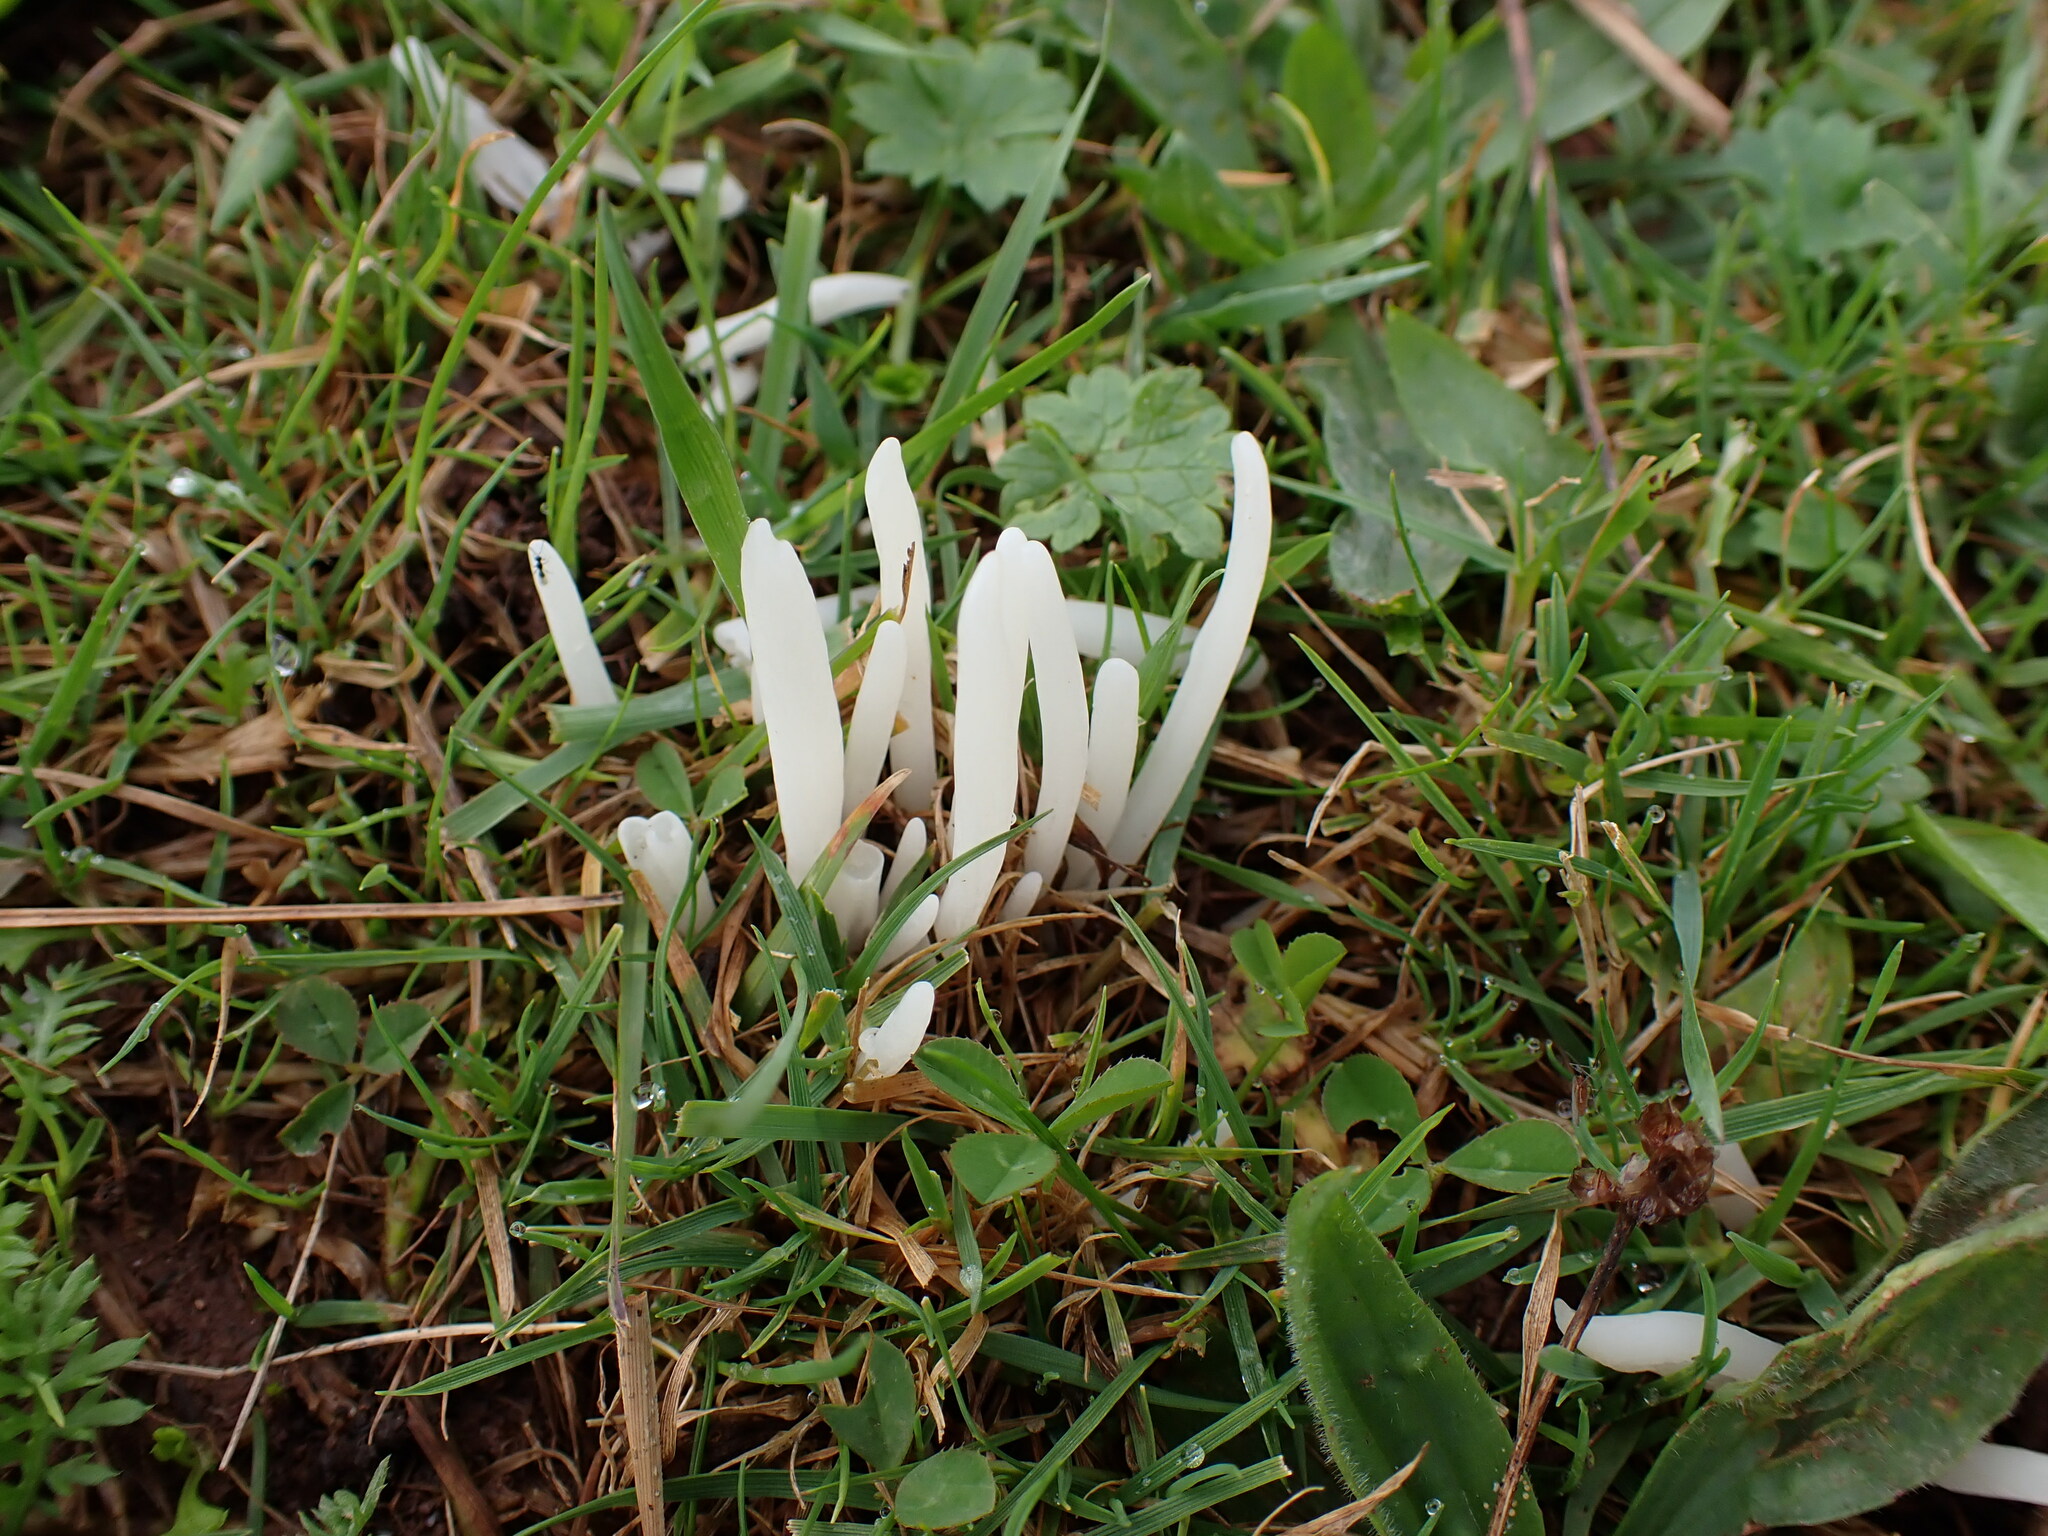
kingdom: Fungi
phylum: Basidiomycota
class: Agaricomycetes
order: Agaricales
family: Clavariaceae
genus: Clavaria
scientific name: Clavaria fragilis
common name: White spindles
